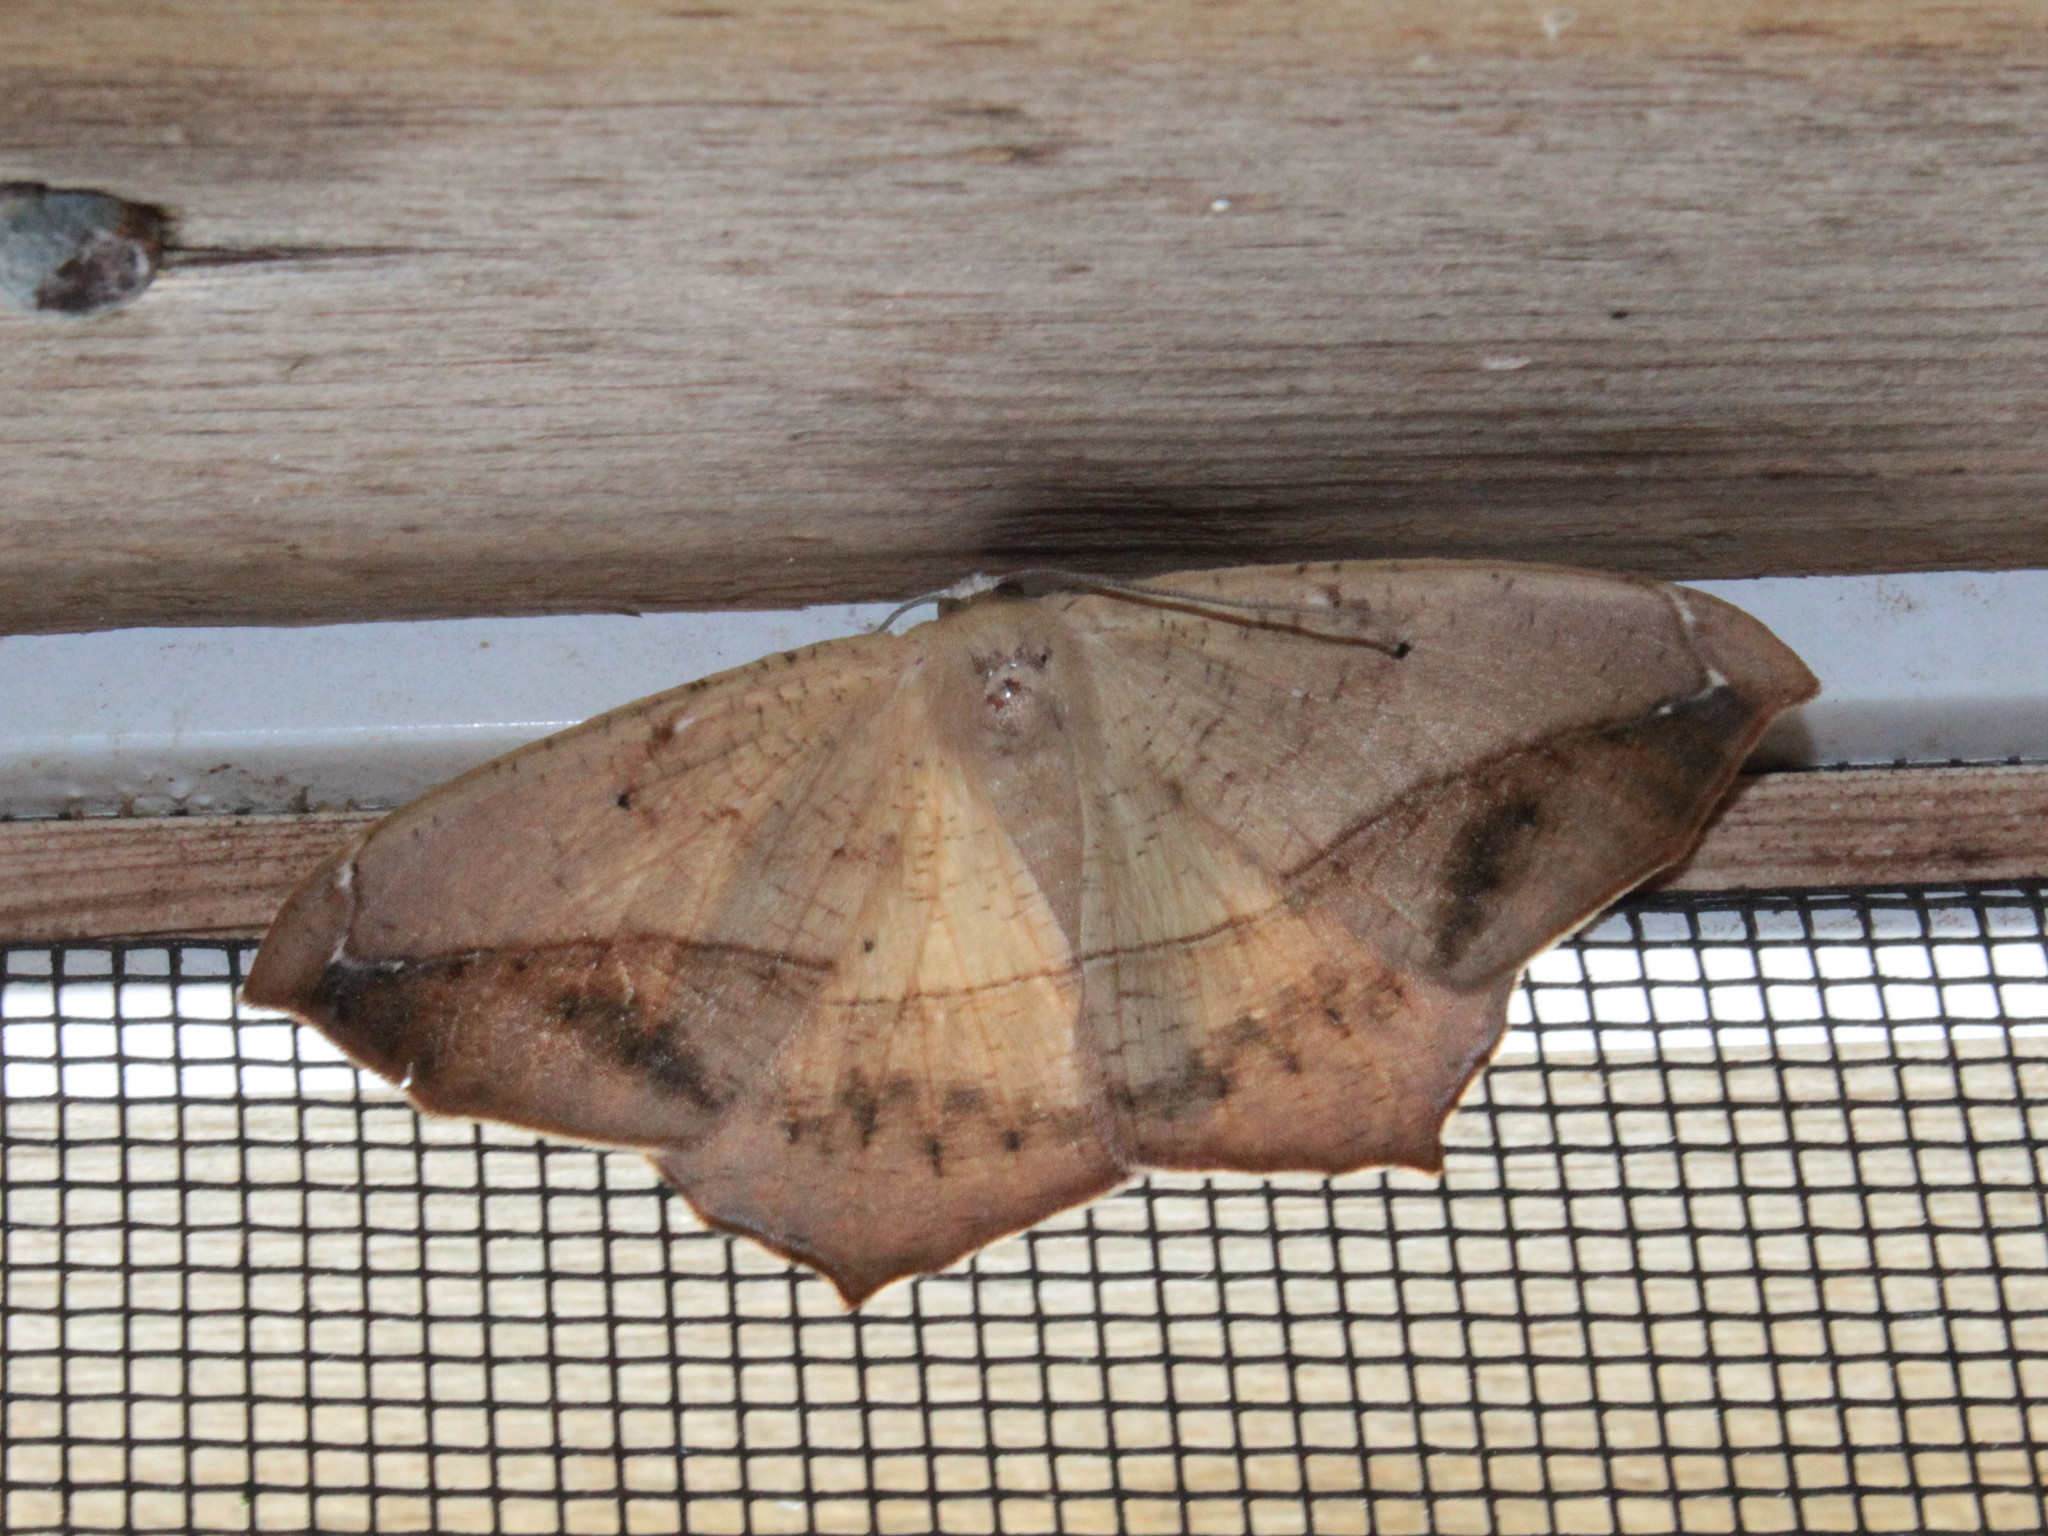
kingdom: Animalia
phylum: Arthropoda
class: Insecta
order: Lepidoptera
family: Geometridae
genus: Prochoerodes
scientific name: Prochoerodes lineola
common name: Large maple spanworm
